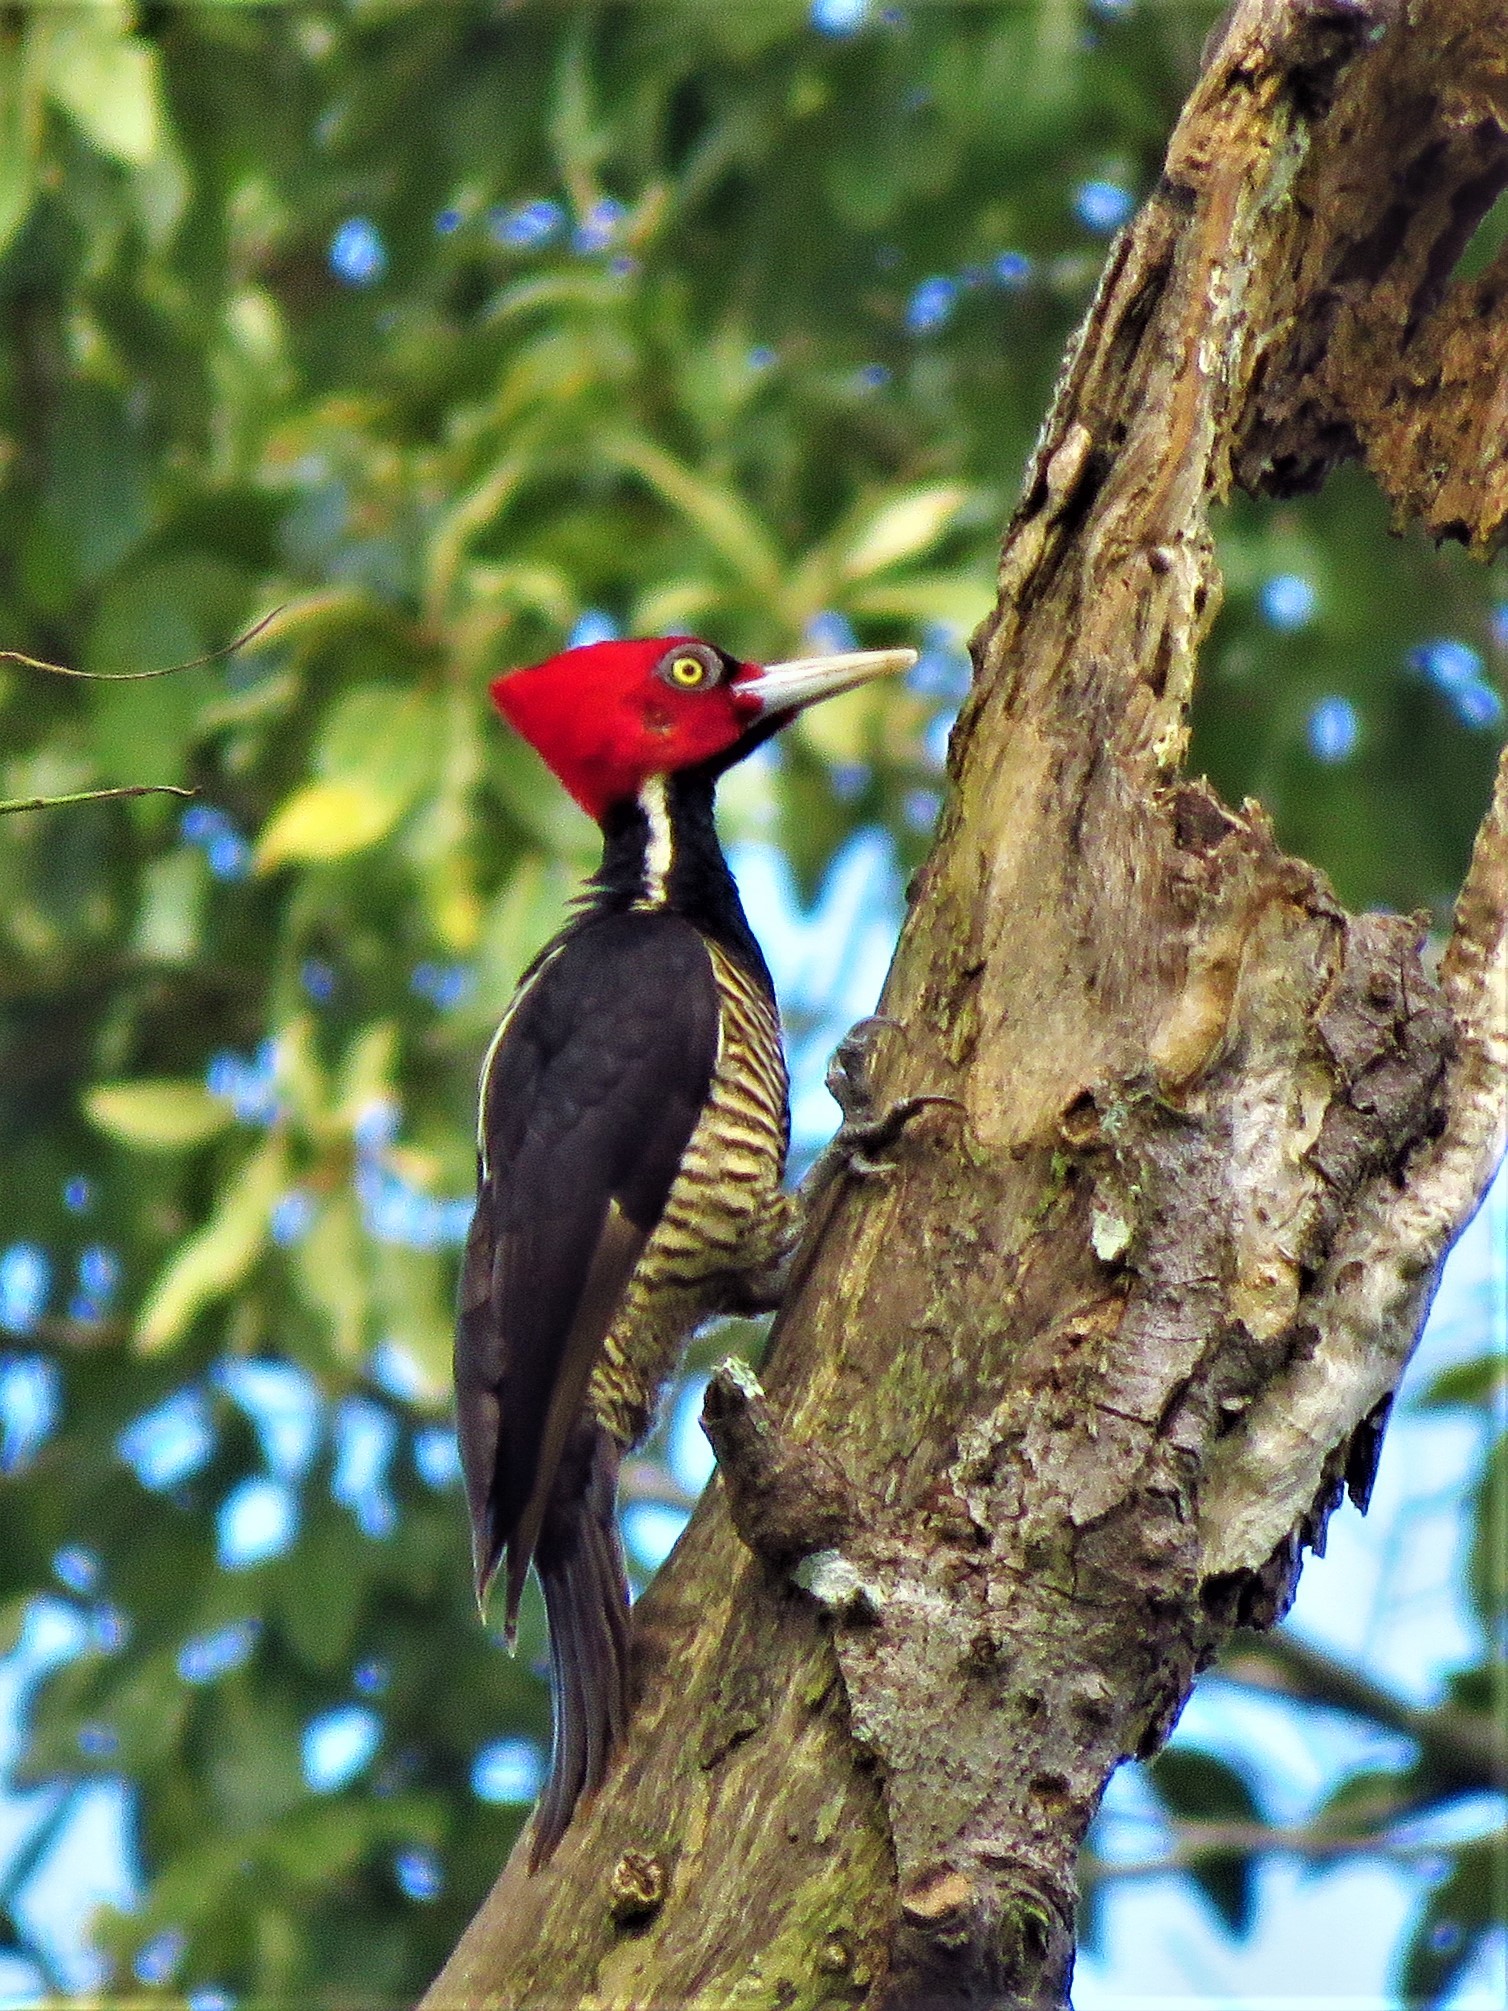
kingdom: Animalia
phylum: Chordata
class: Aves
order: Piciformes
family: Picidae
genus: Campephilus
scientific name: Campephilus guatemalensis
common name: Pale-billed woodpecker
